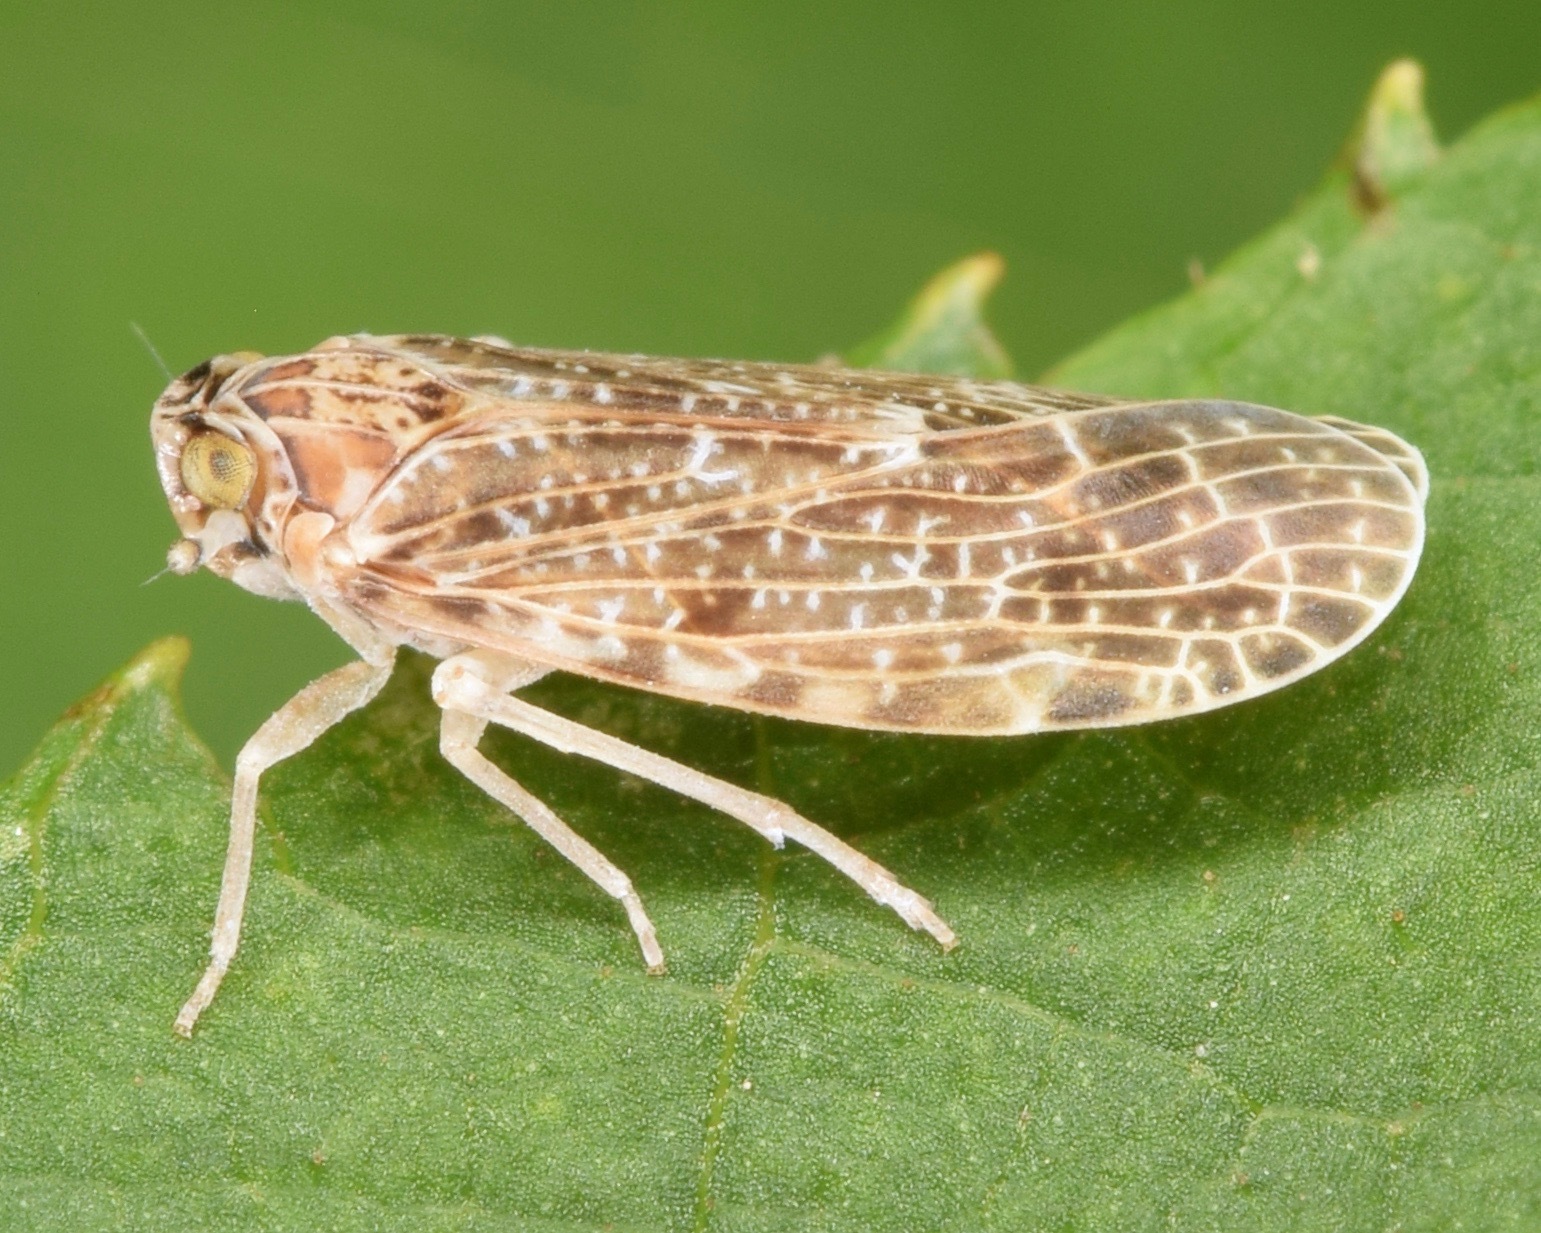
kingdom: Animalia
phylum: Arthropoda
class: Insecta
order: Hemiptera
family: Achilidae
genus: Synecdoche
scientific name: Synecdoche grisea
